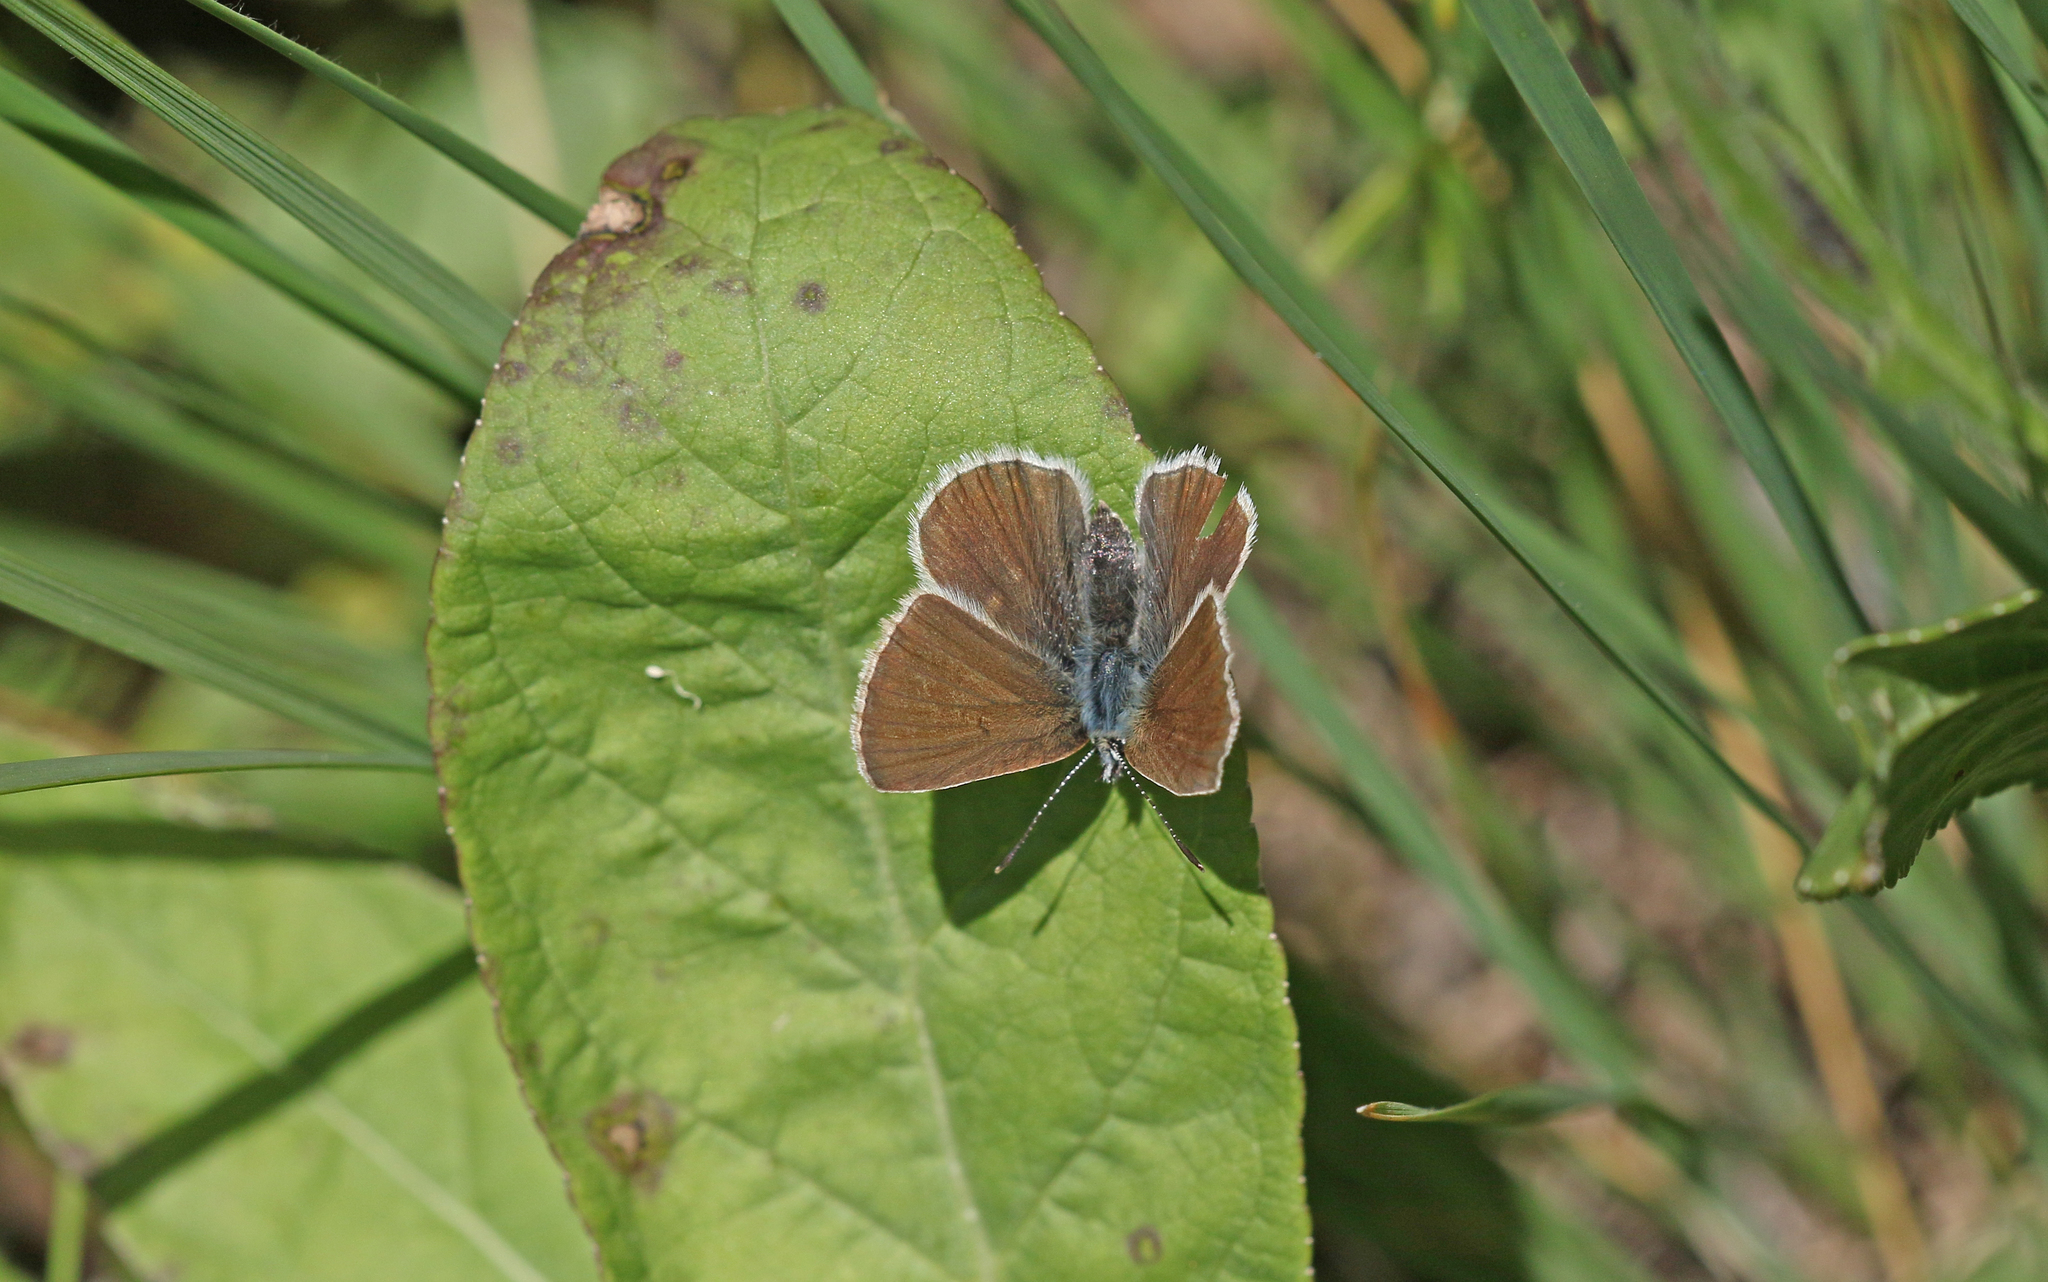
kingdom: Animalia
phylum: Arthropoda
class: Insecta
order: Lepidoptera
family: Lycaenidae
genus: Pseudoaricia
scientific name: Pseudoaricia nicias
